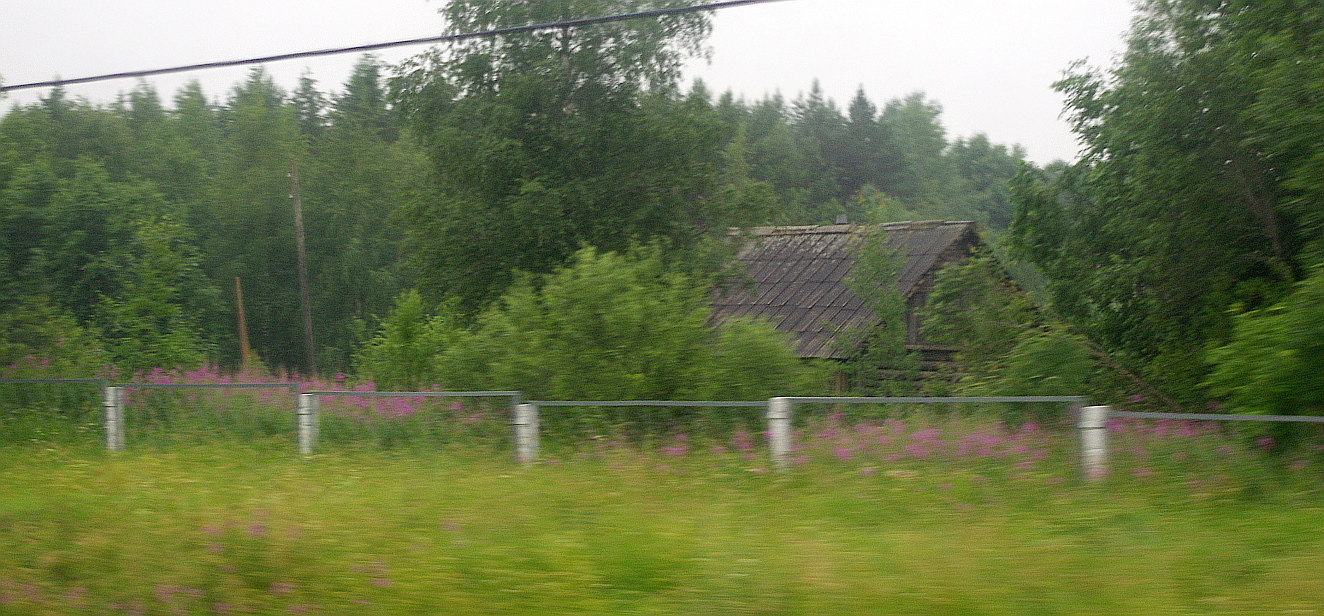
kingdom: Plantae
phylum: Tracheophyta
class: Magnoliopsida
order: Myrtales
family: Onagraceae
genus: Chamaenerion
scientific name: Chamaenerion angustifolium
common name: Fireweed
